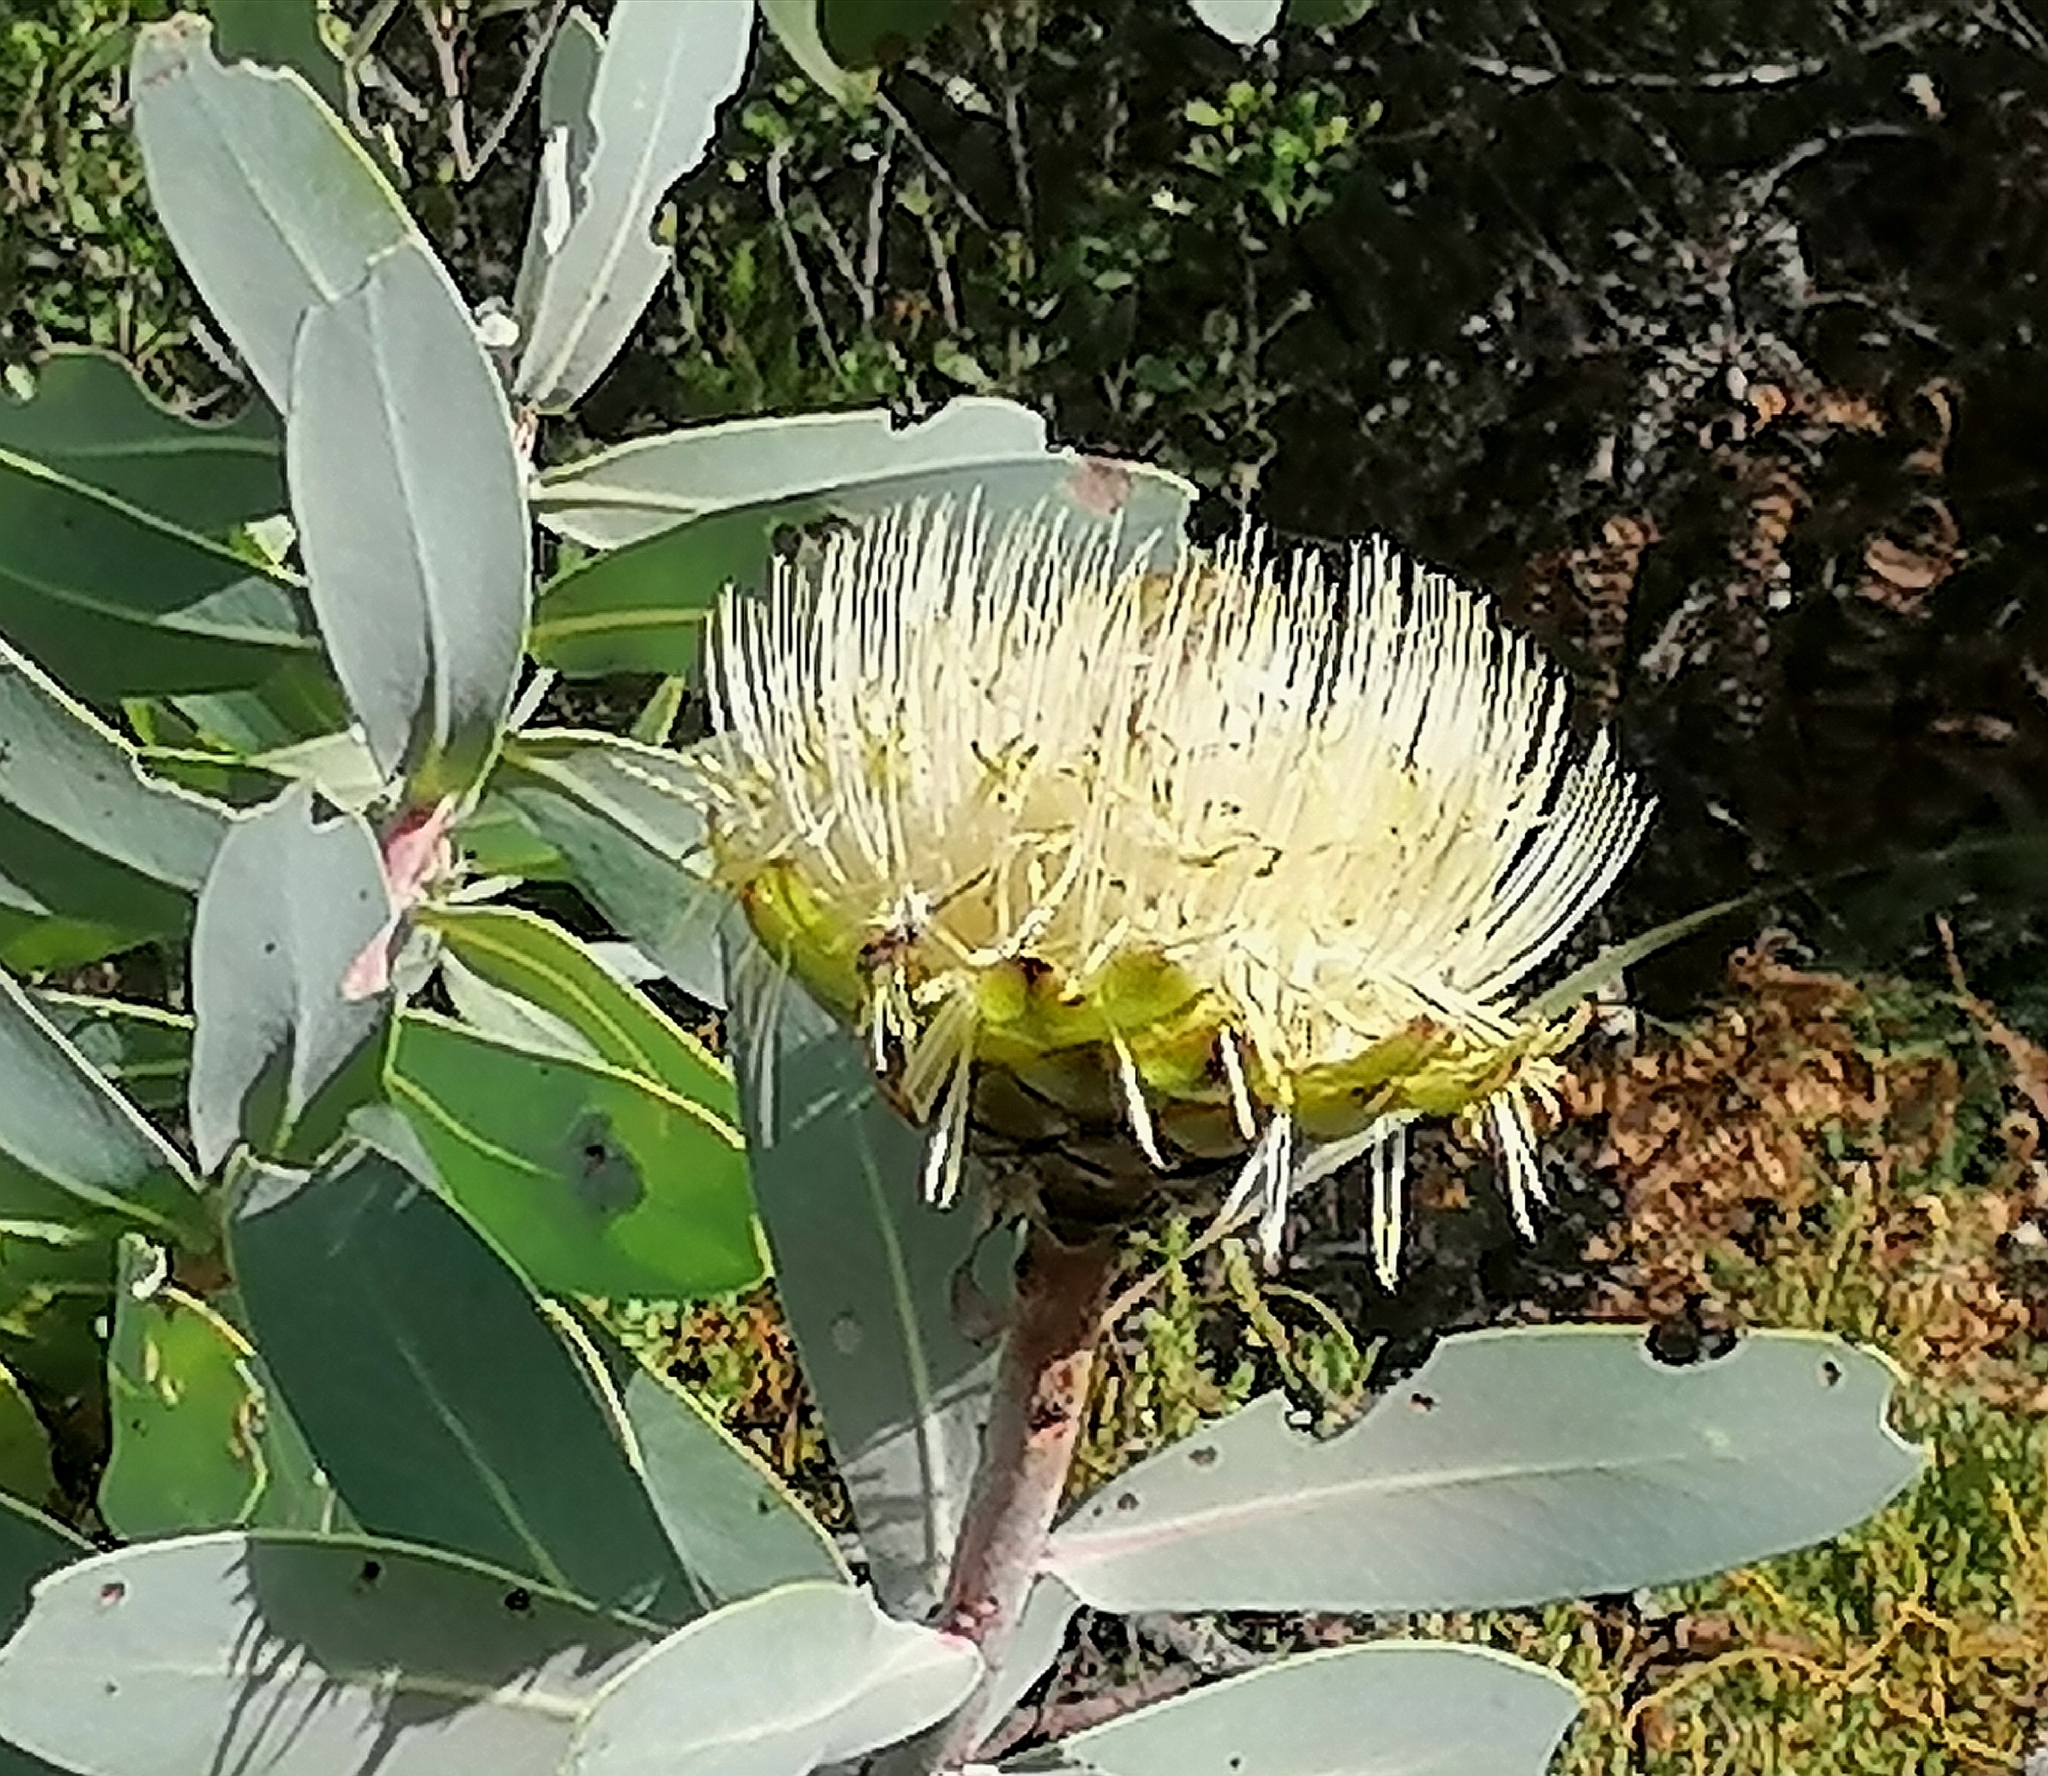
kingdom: Plantae
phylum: Tracheophyta
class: Magnoliopsida
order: Proteales
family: Proteaceae
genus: Protea
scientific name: Protea nitida
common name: Tree protea
